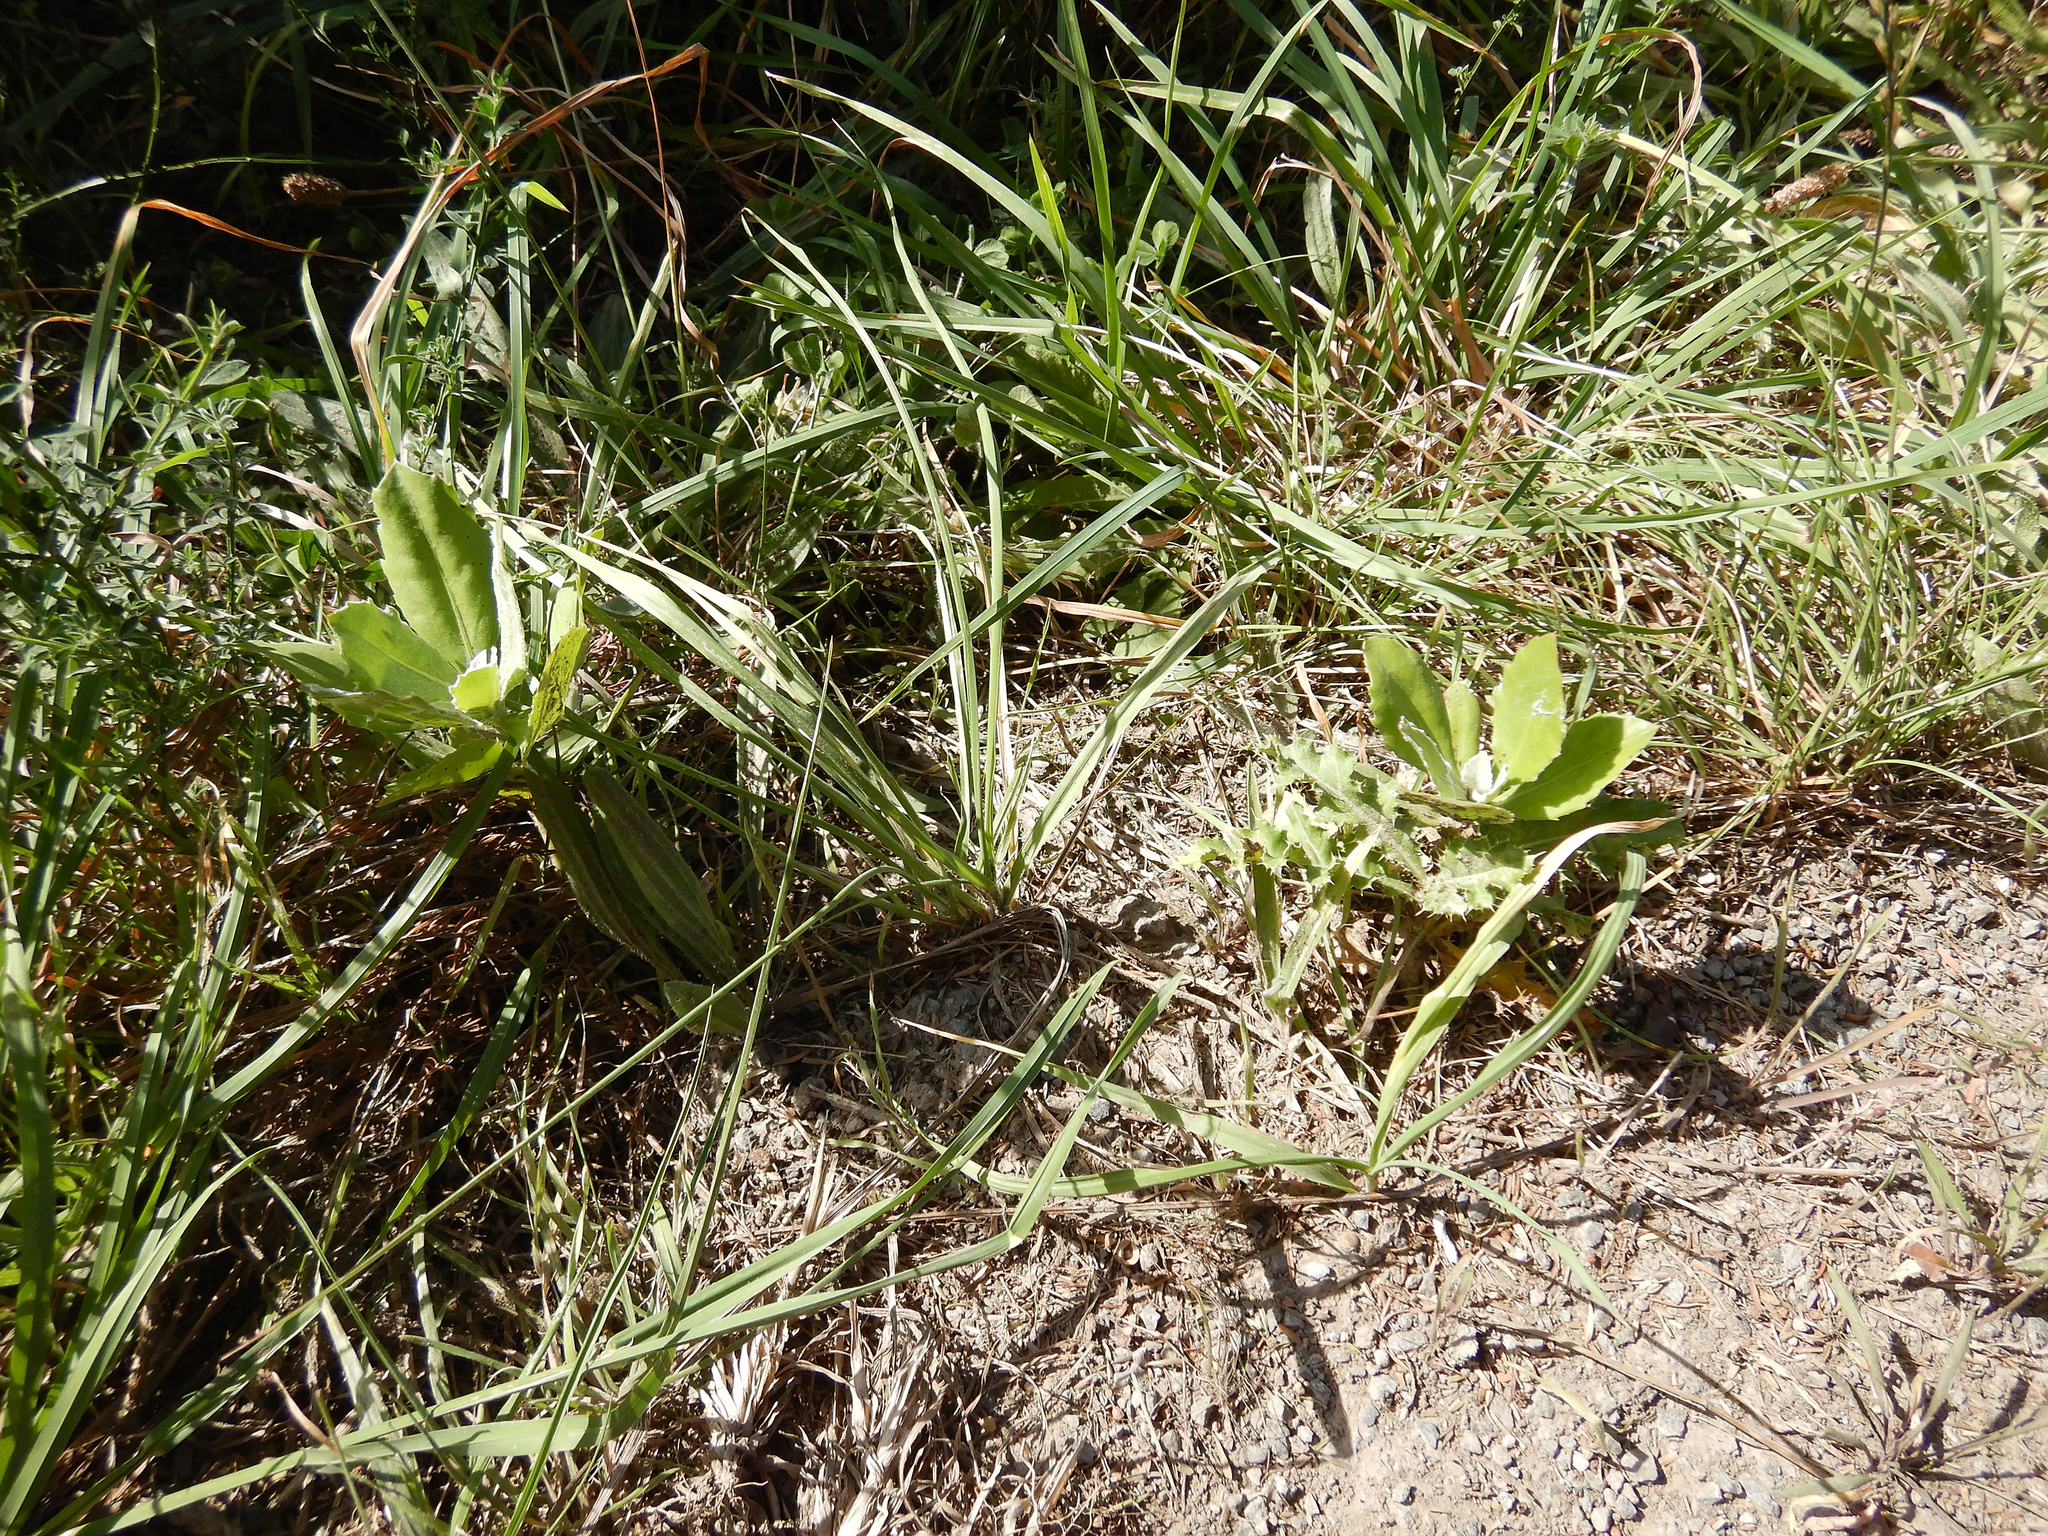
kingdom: Plantae
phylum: Tracheophyta
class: Magnoliopsida
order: Asterales
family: Asteraceae
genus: Osteospermum
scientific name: Osteospermum moniliferum
